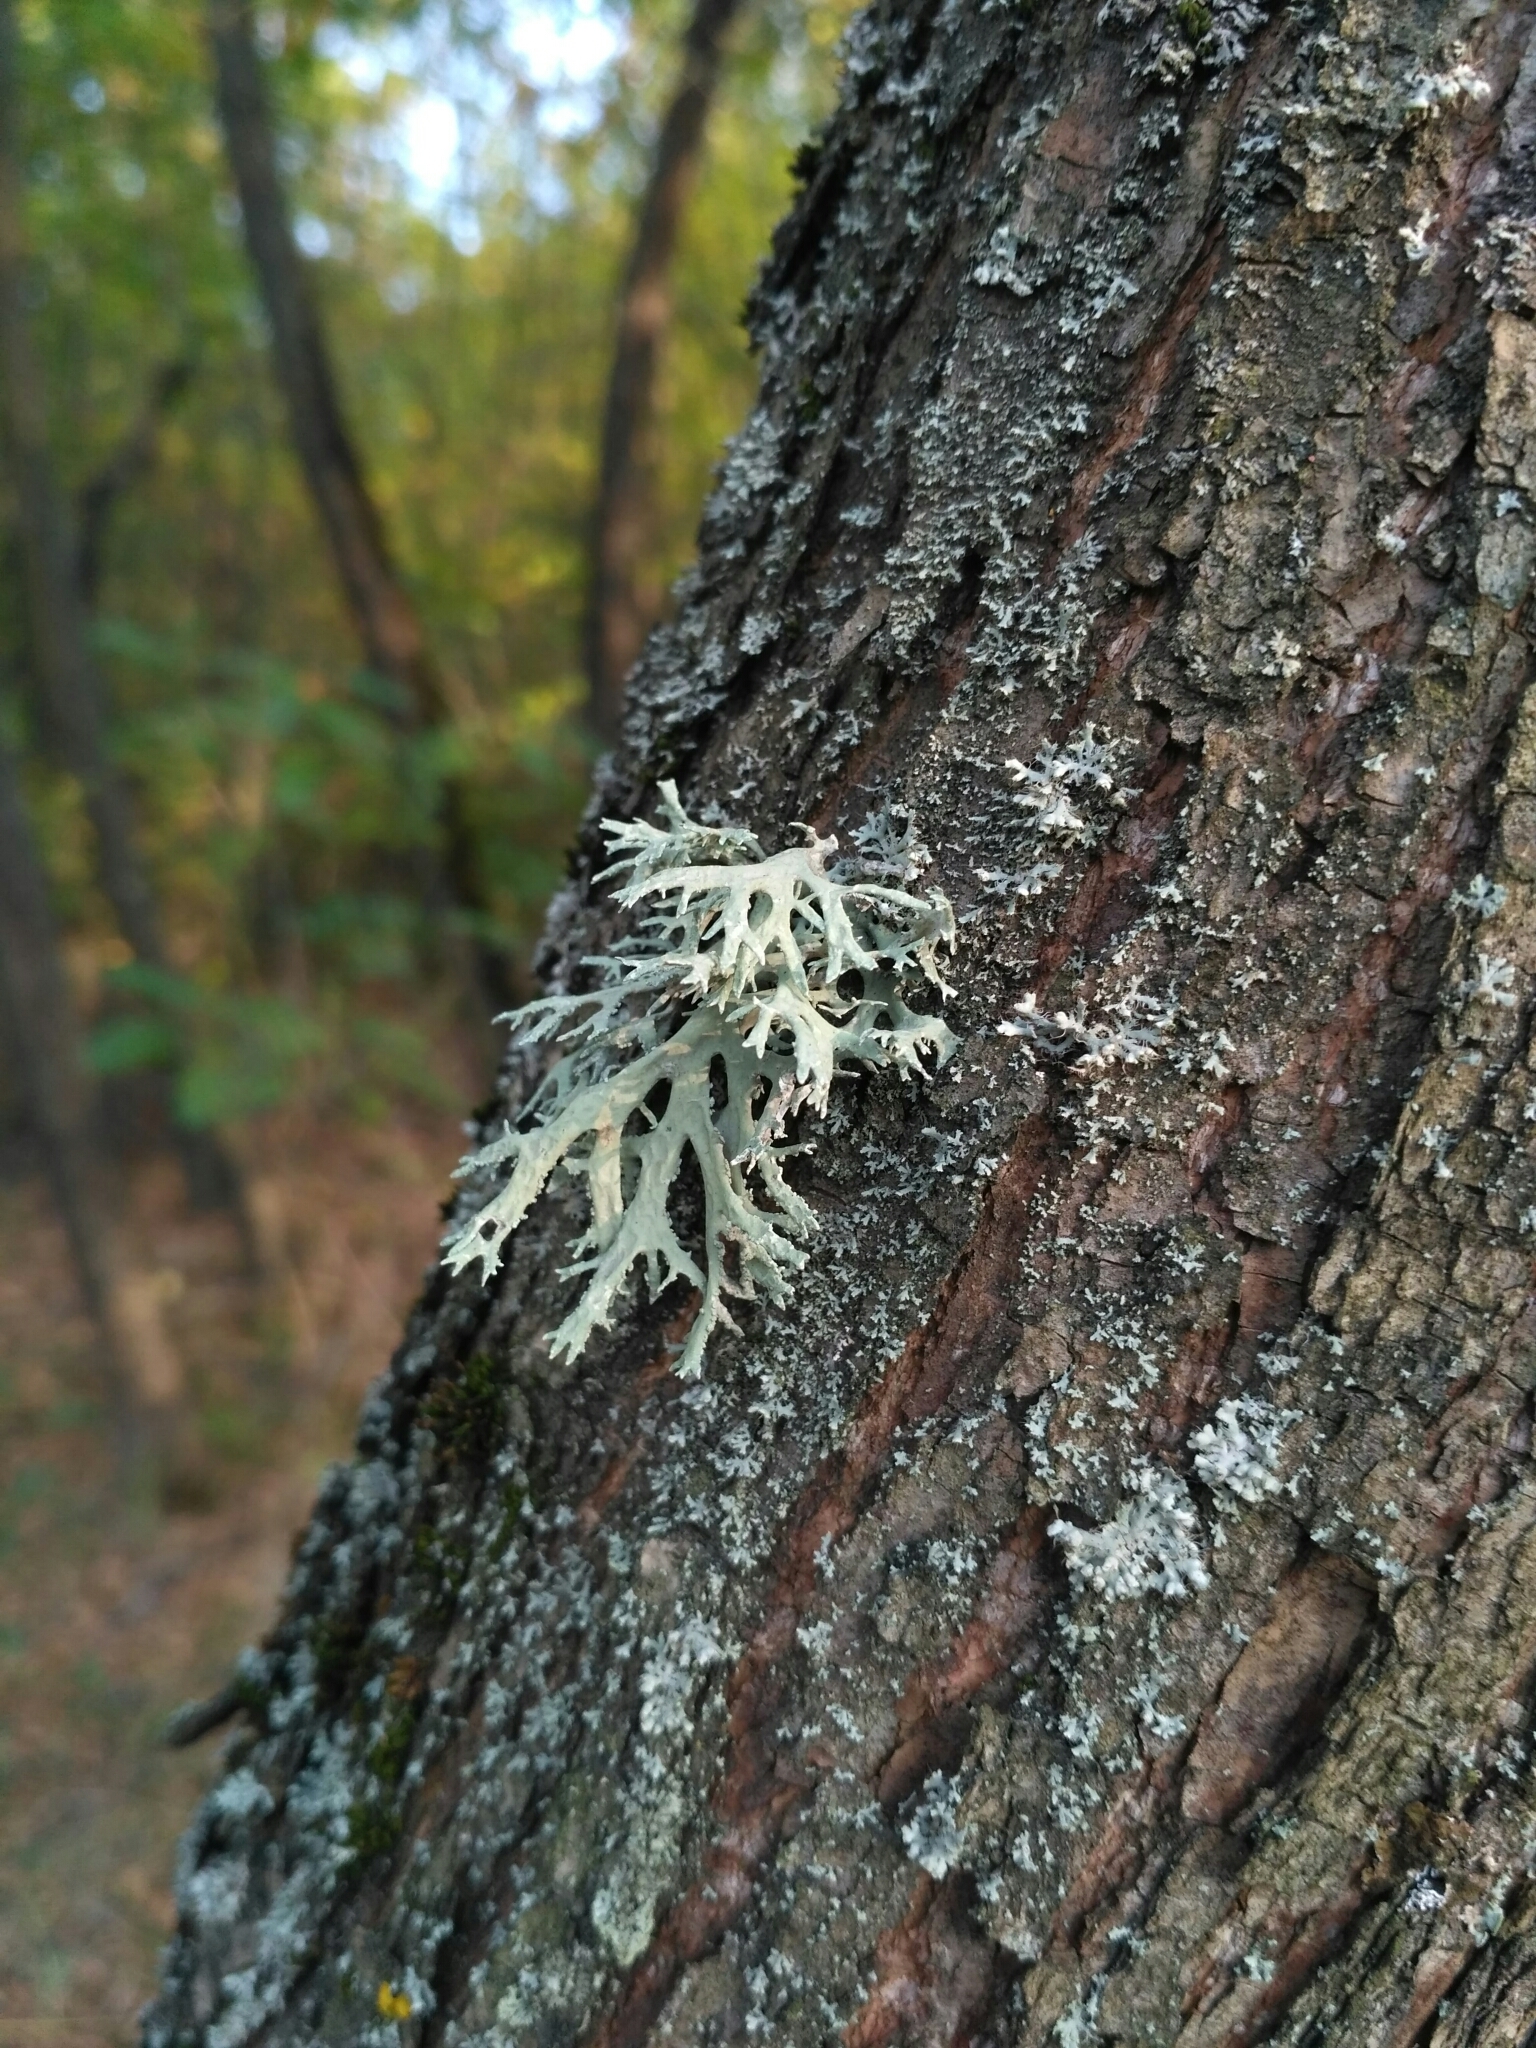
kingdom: Fungi
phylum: Ascomycota
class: Lecanoromycetes
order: Lecanorales
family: Parmeliaceae
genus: Evernia
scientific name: Evernia prunastri
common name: Oak moss
